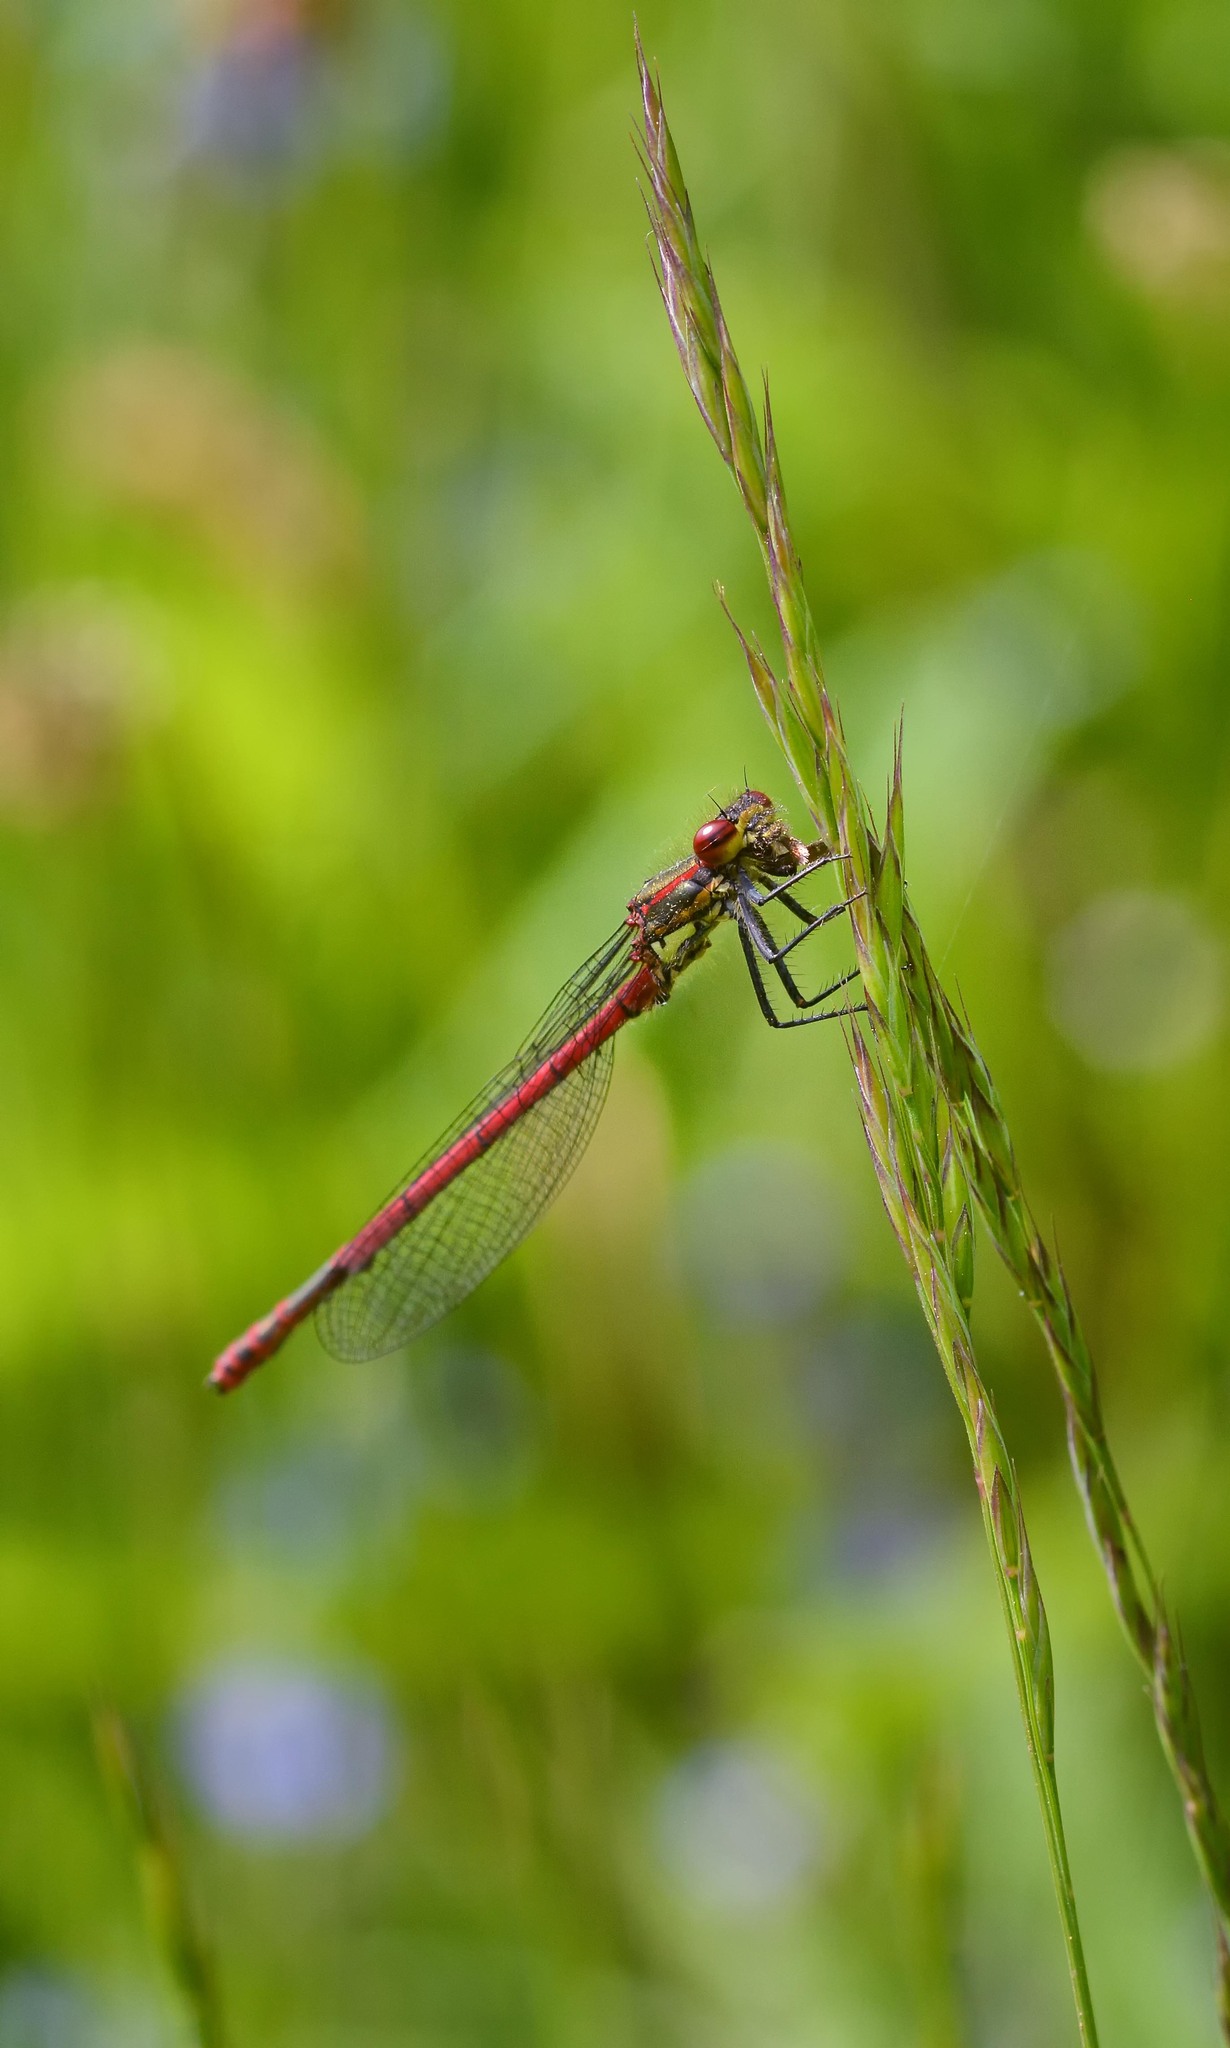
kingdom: Animalia
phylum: Arthropoda
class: Insecta
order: Odonata
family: Coenagrionidae
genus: Pyrrhosoma
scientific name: Pyrrhosoma nymphula
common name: Large red damsel
